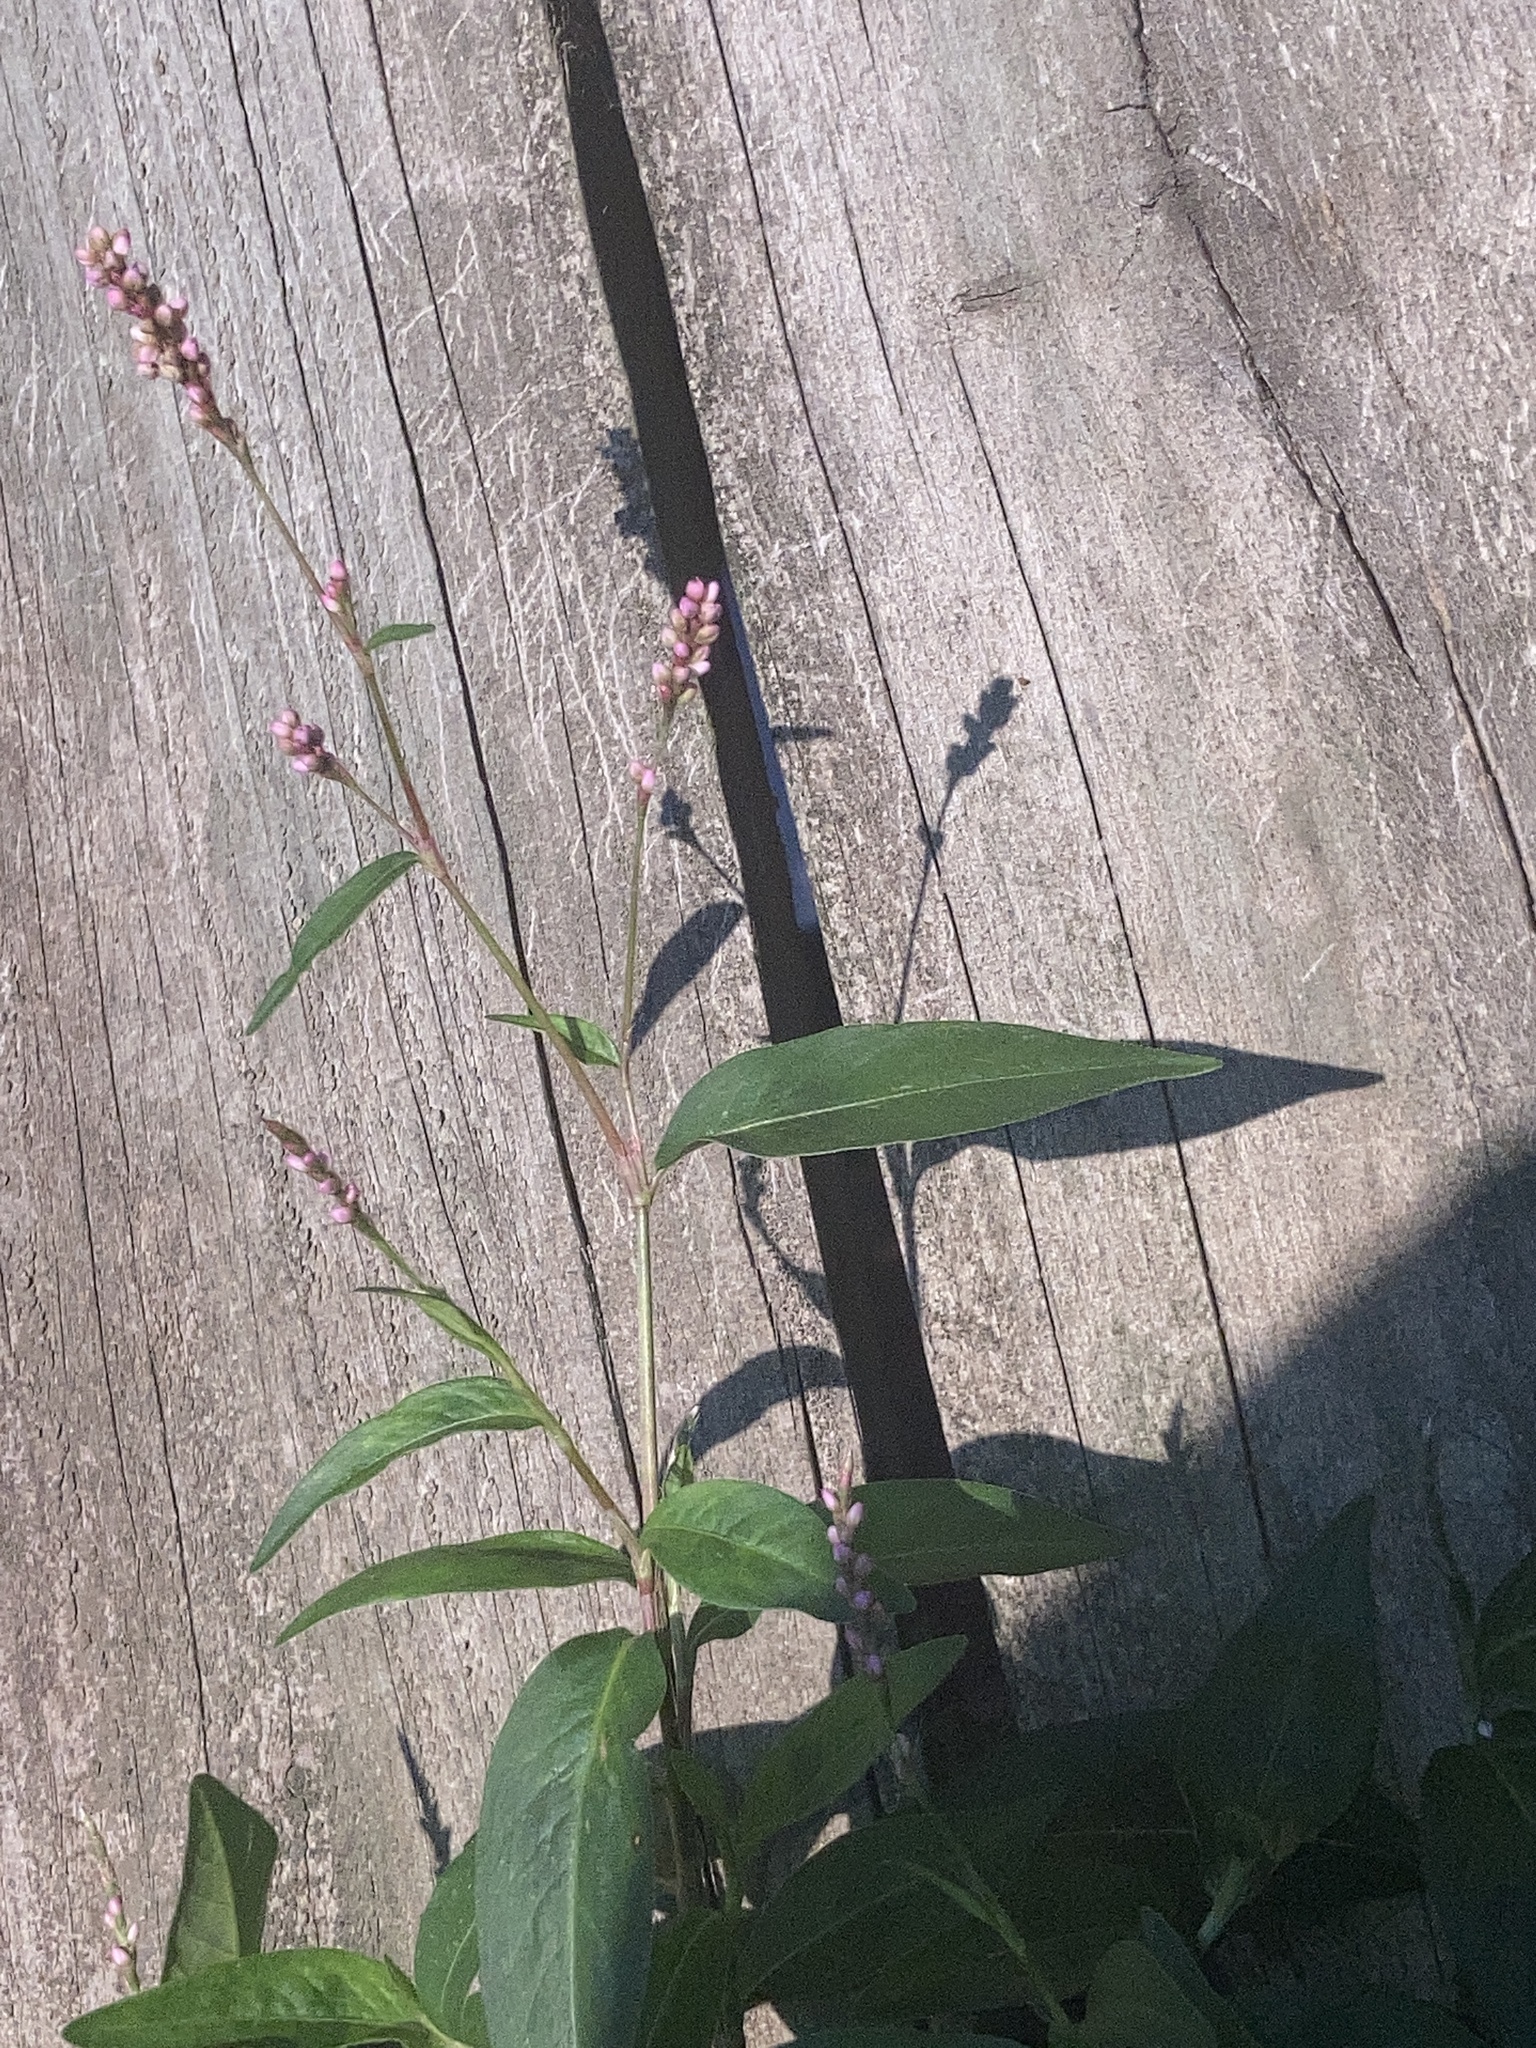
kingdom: Plantae
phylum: Tracheophyta
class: Magnoliopsida
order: Caryophyllales
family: Polygonaceae
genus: Persicaria
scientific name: Persicaria longiseta
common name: Bristly lady's-thumb
